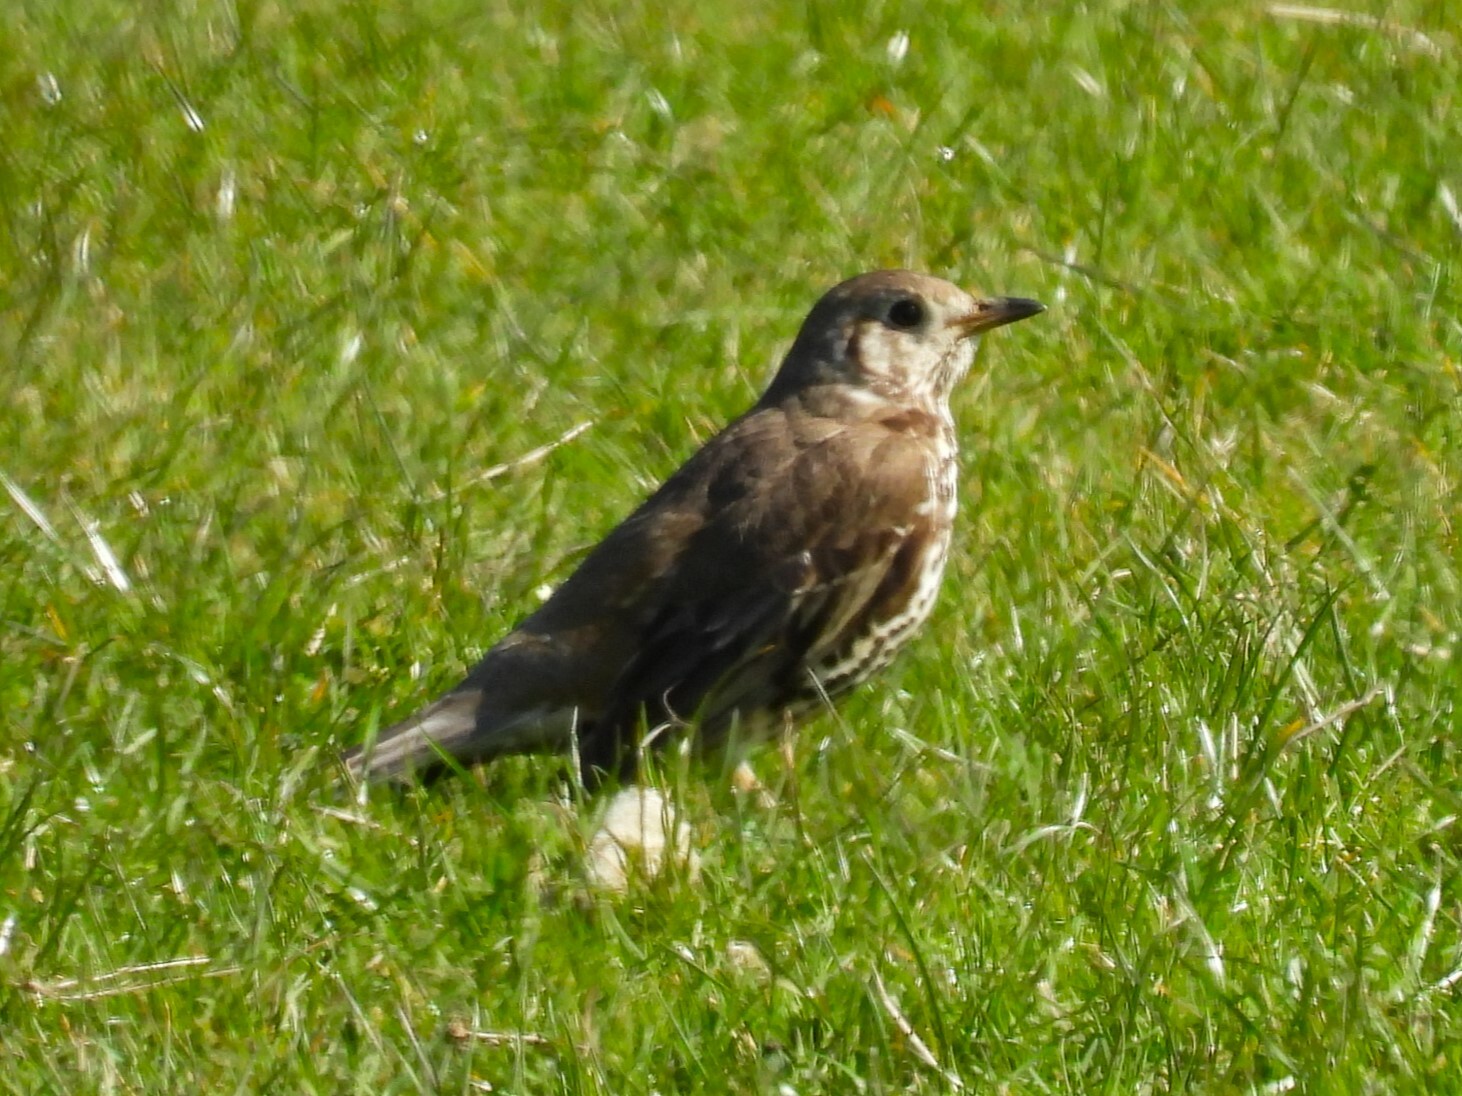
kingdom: Animalia
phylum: Chordata
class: Aves
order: Passeriformes
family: Turdidae
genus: Turdus
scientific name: Turdus viscivorus
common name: Mistle thrush
